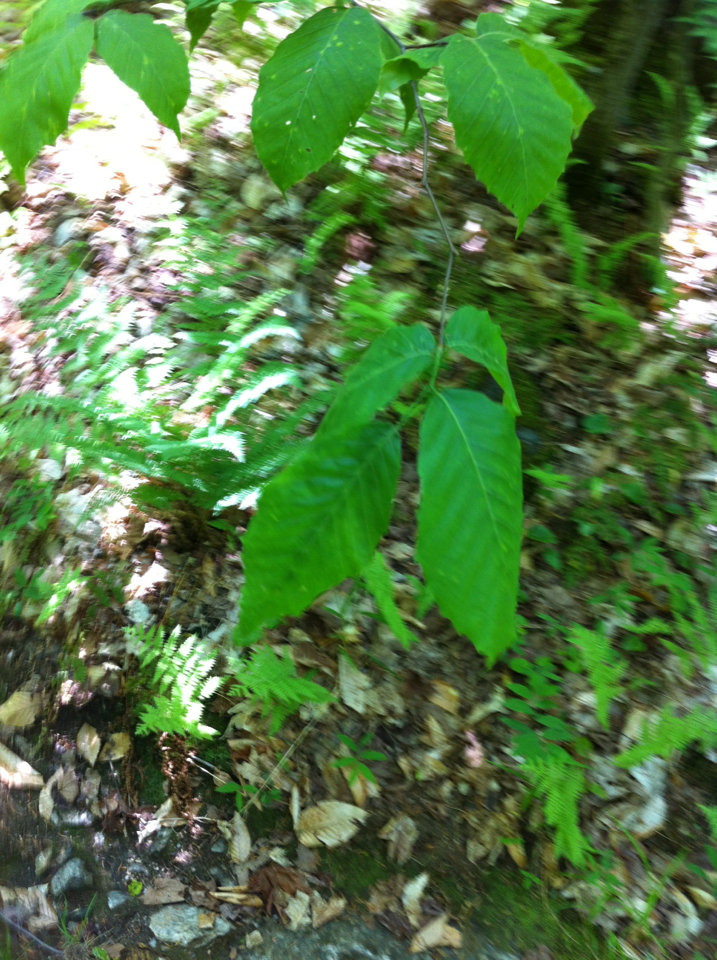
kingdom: Plantae
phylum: Tracheophyta
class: Magnoliopsida
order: Fagales
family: Fagaceae
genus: Fagus
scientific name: Fagus grandifolia
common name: American beech
